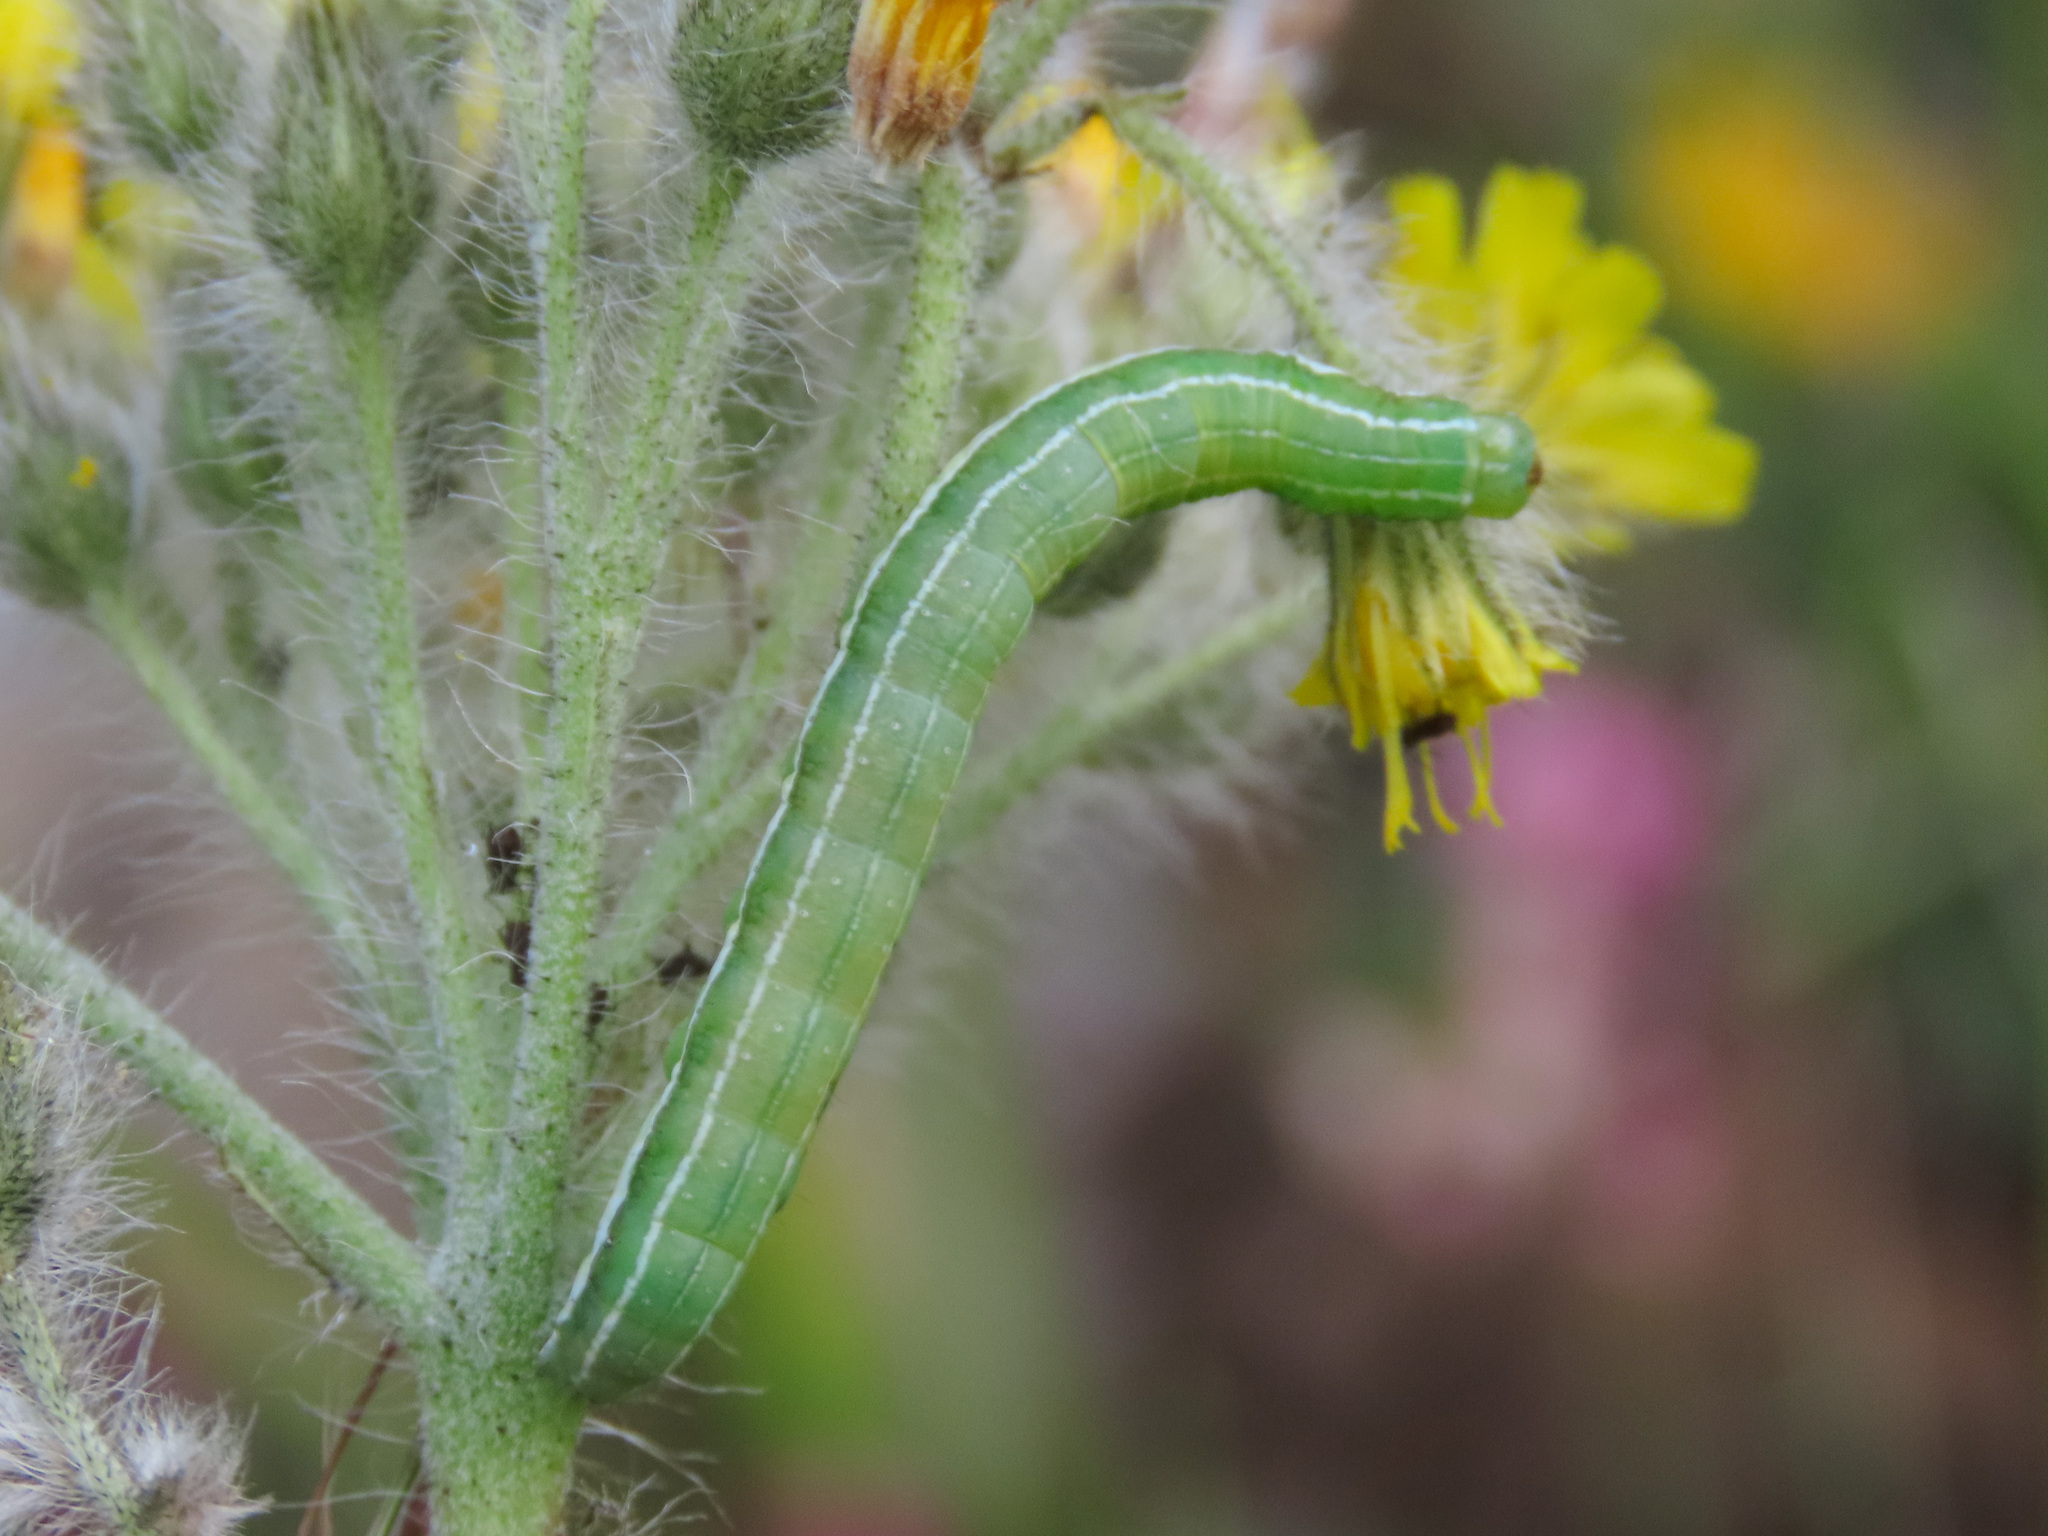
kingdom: Animalia
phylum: Arthropoda
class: Insecta
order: Lepidoptera
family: Noctuidae
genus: Antitype
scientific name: Antitype chi
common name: Grey chi
